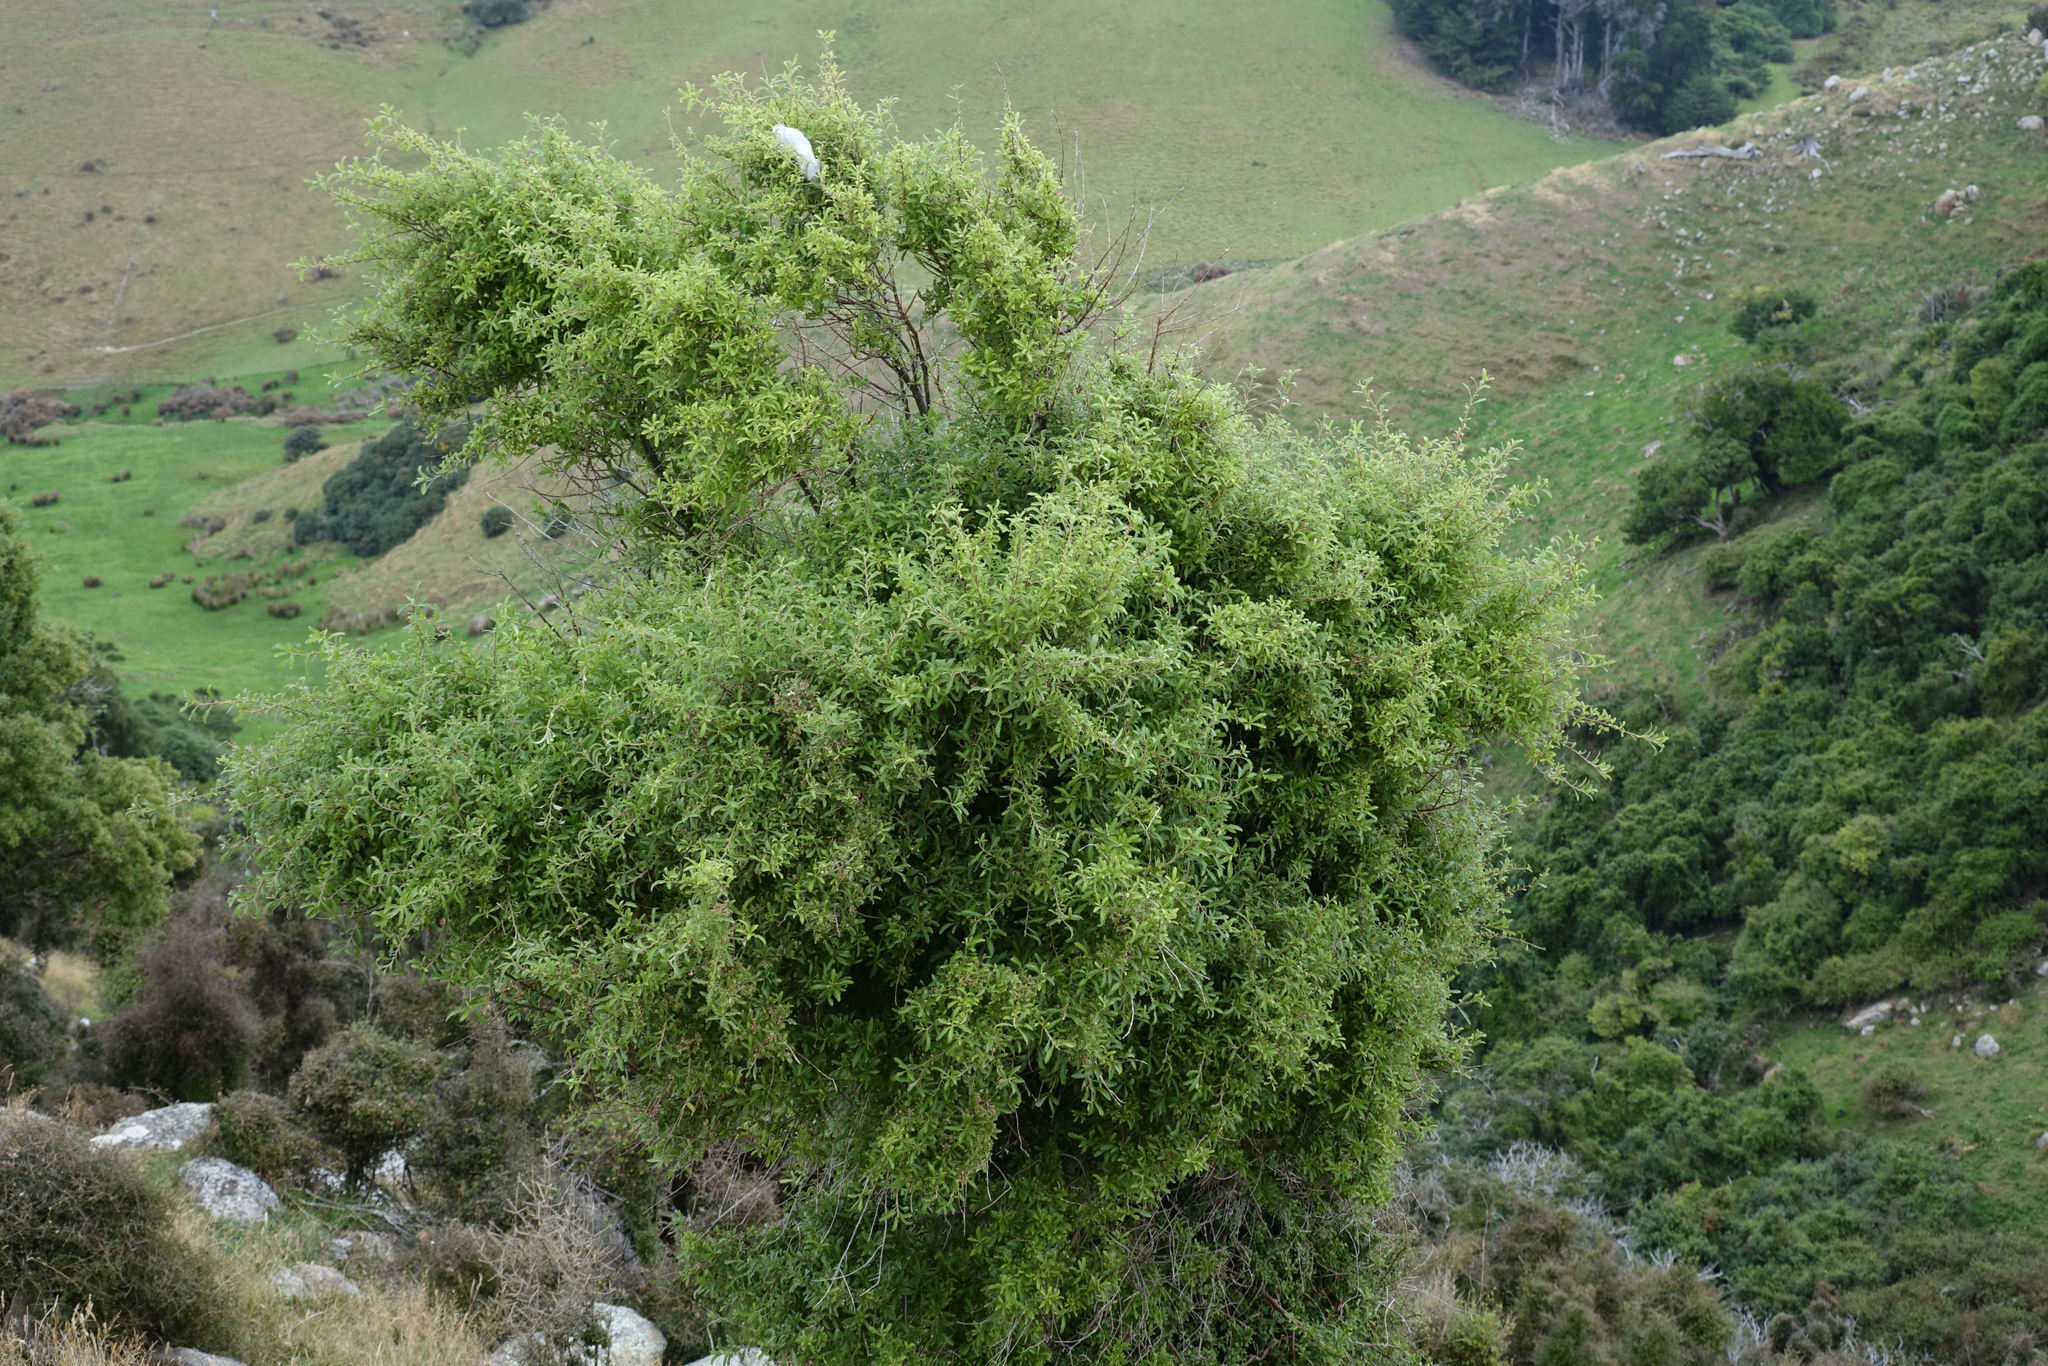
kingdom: Plantae
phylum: Tracheophyta
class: Magnoliopsida
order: Malvales
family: Malvaceae
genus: Hoheria
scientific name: Hoheria angustifolia
